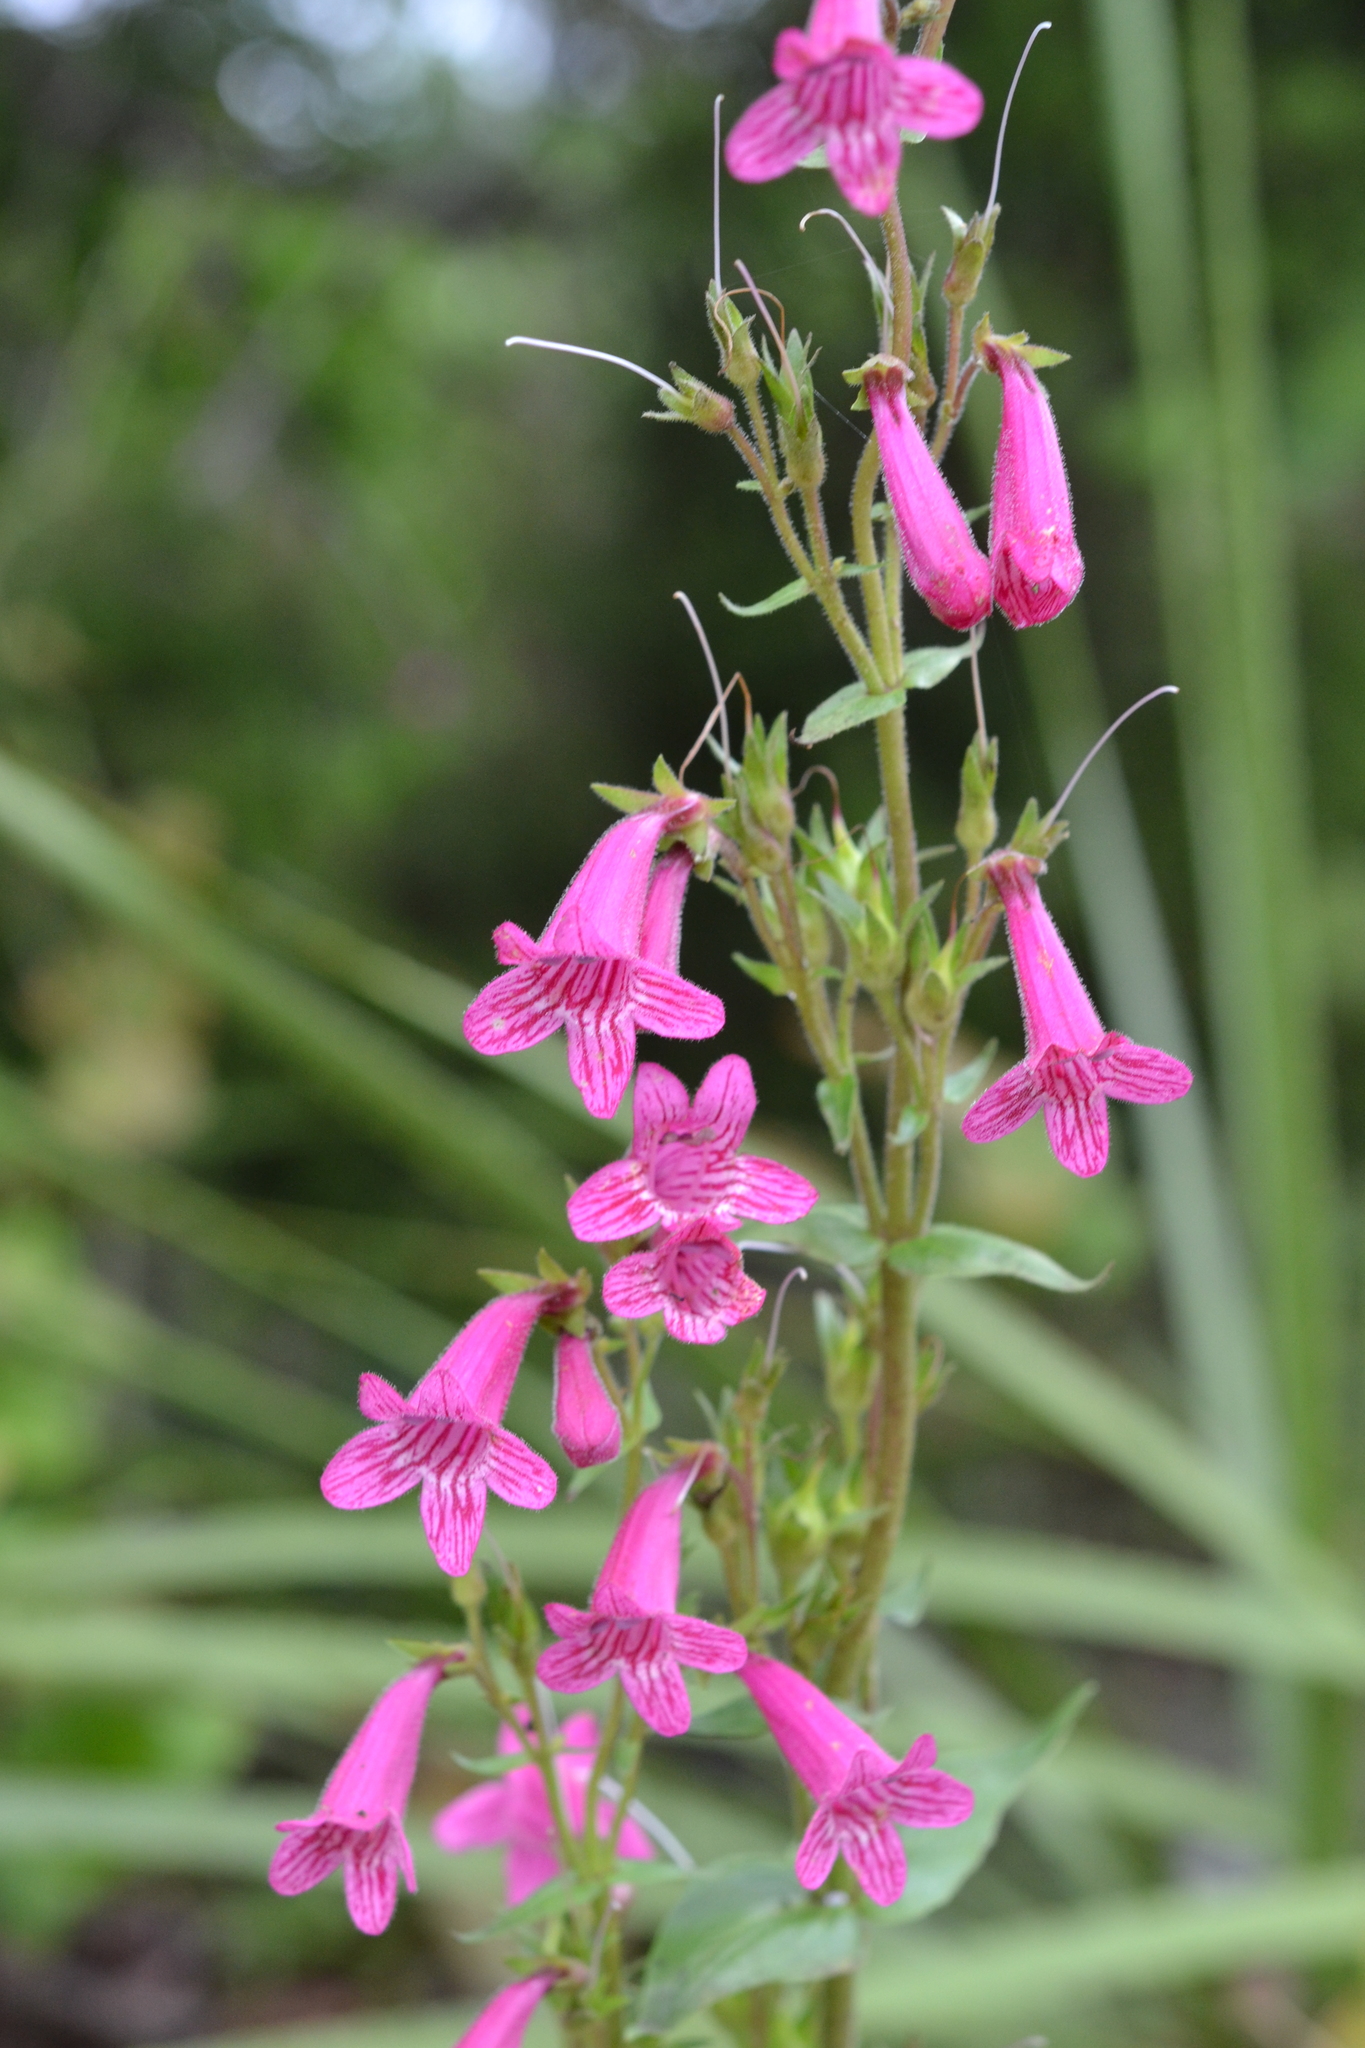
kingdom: Plantae
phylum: Tracheophyta
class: Magnoliopsida
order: Lamiales
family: Plantaginaceae
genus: Penstemon
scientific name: Penstemon triflorus
